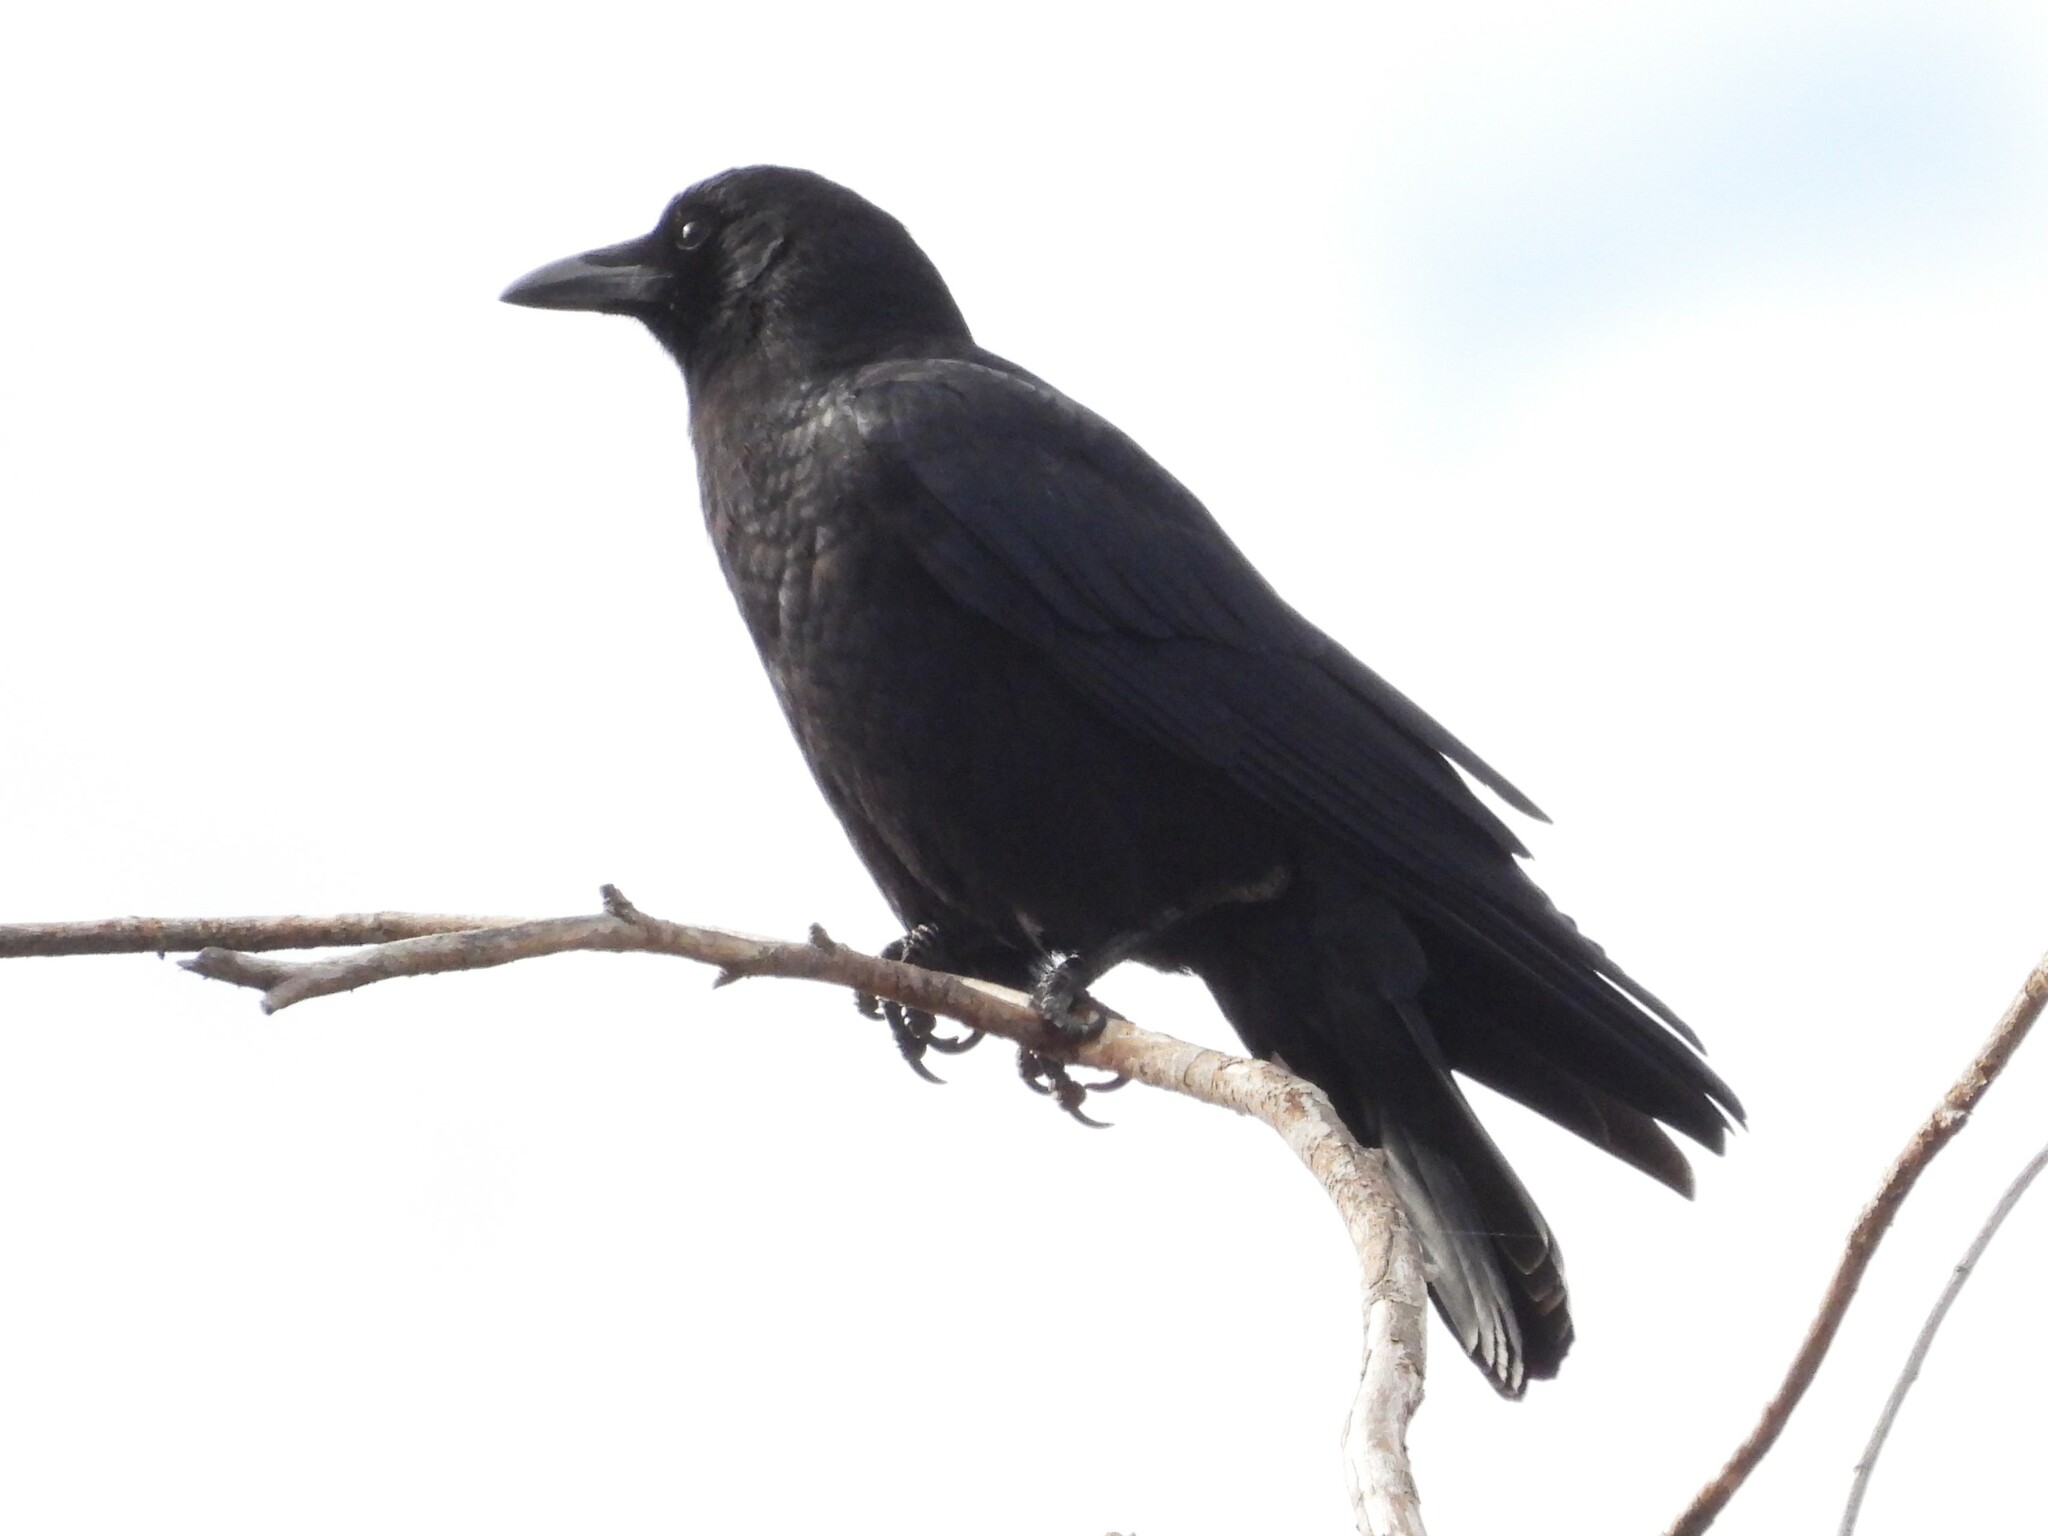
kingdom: Animalia
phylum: Chordata
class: Aves
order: Passeriformes
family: Corvidae
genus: Corvus
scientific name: Corvus brachyrhynchos
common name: American crow
